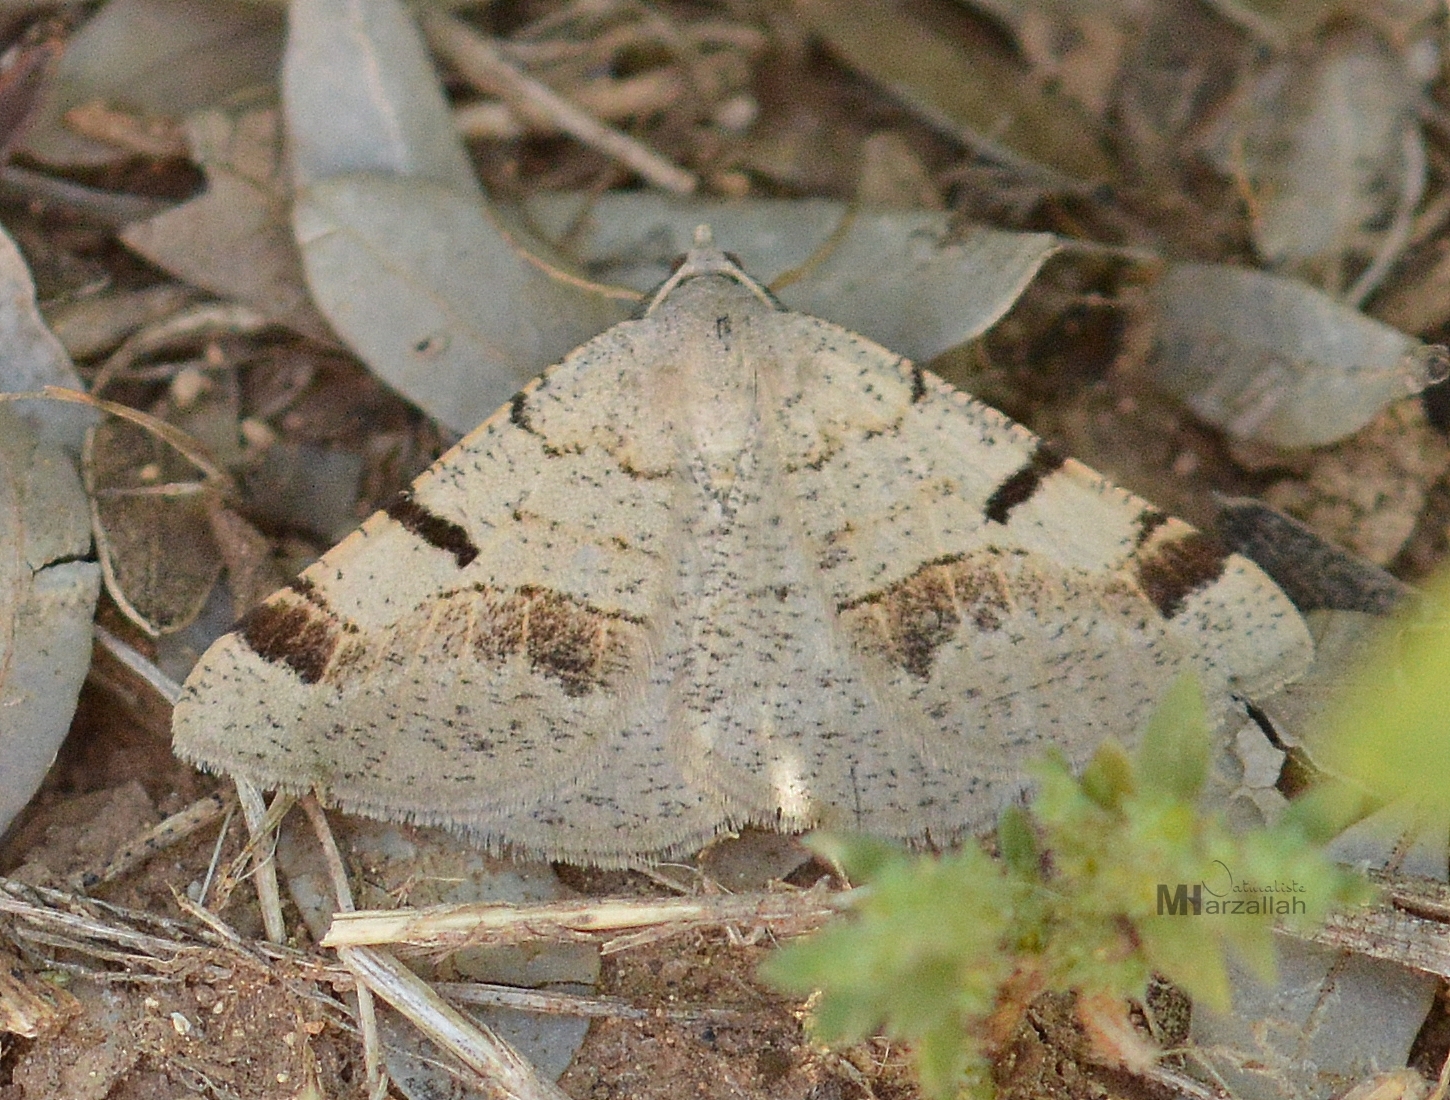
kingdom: Animalia
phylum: Arthropoda
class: Insecta
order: Lepidoptera
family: Geometridae
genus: Itame
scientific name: Itame vincularia
